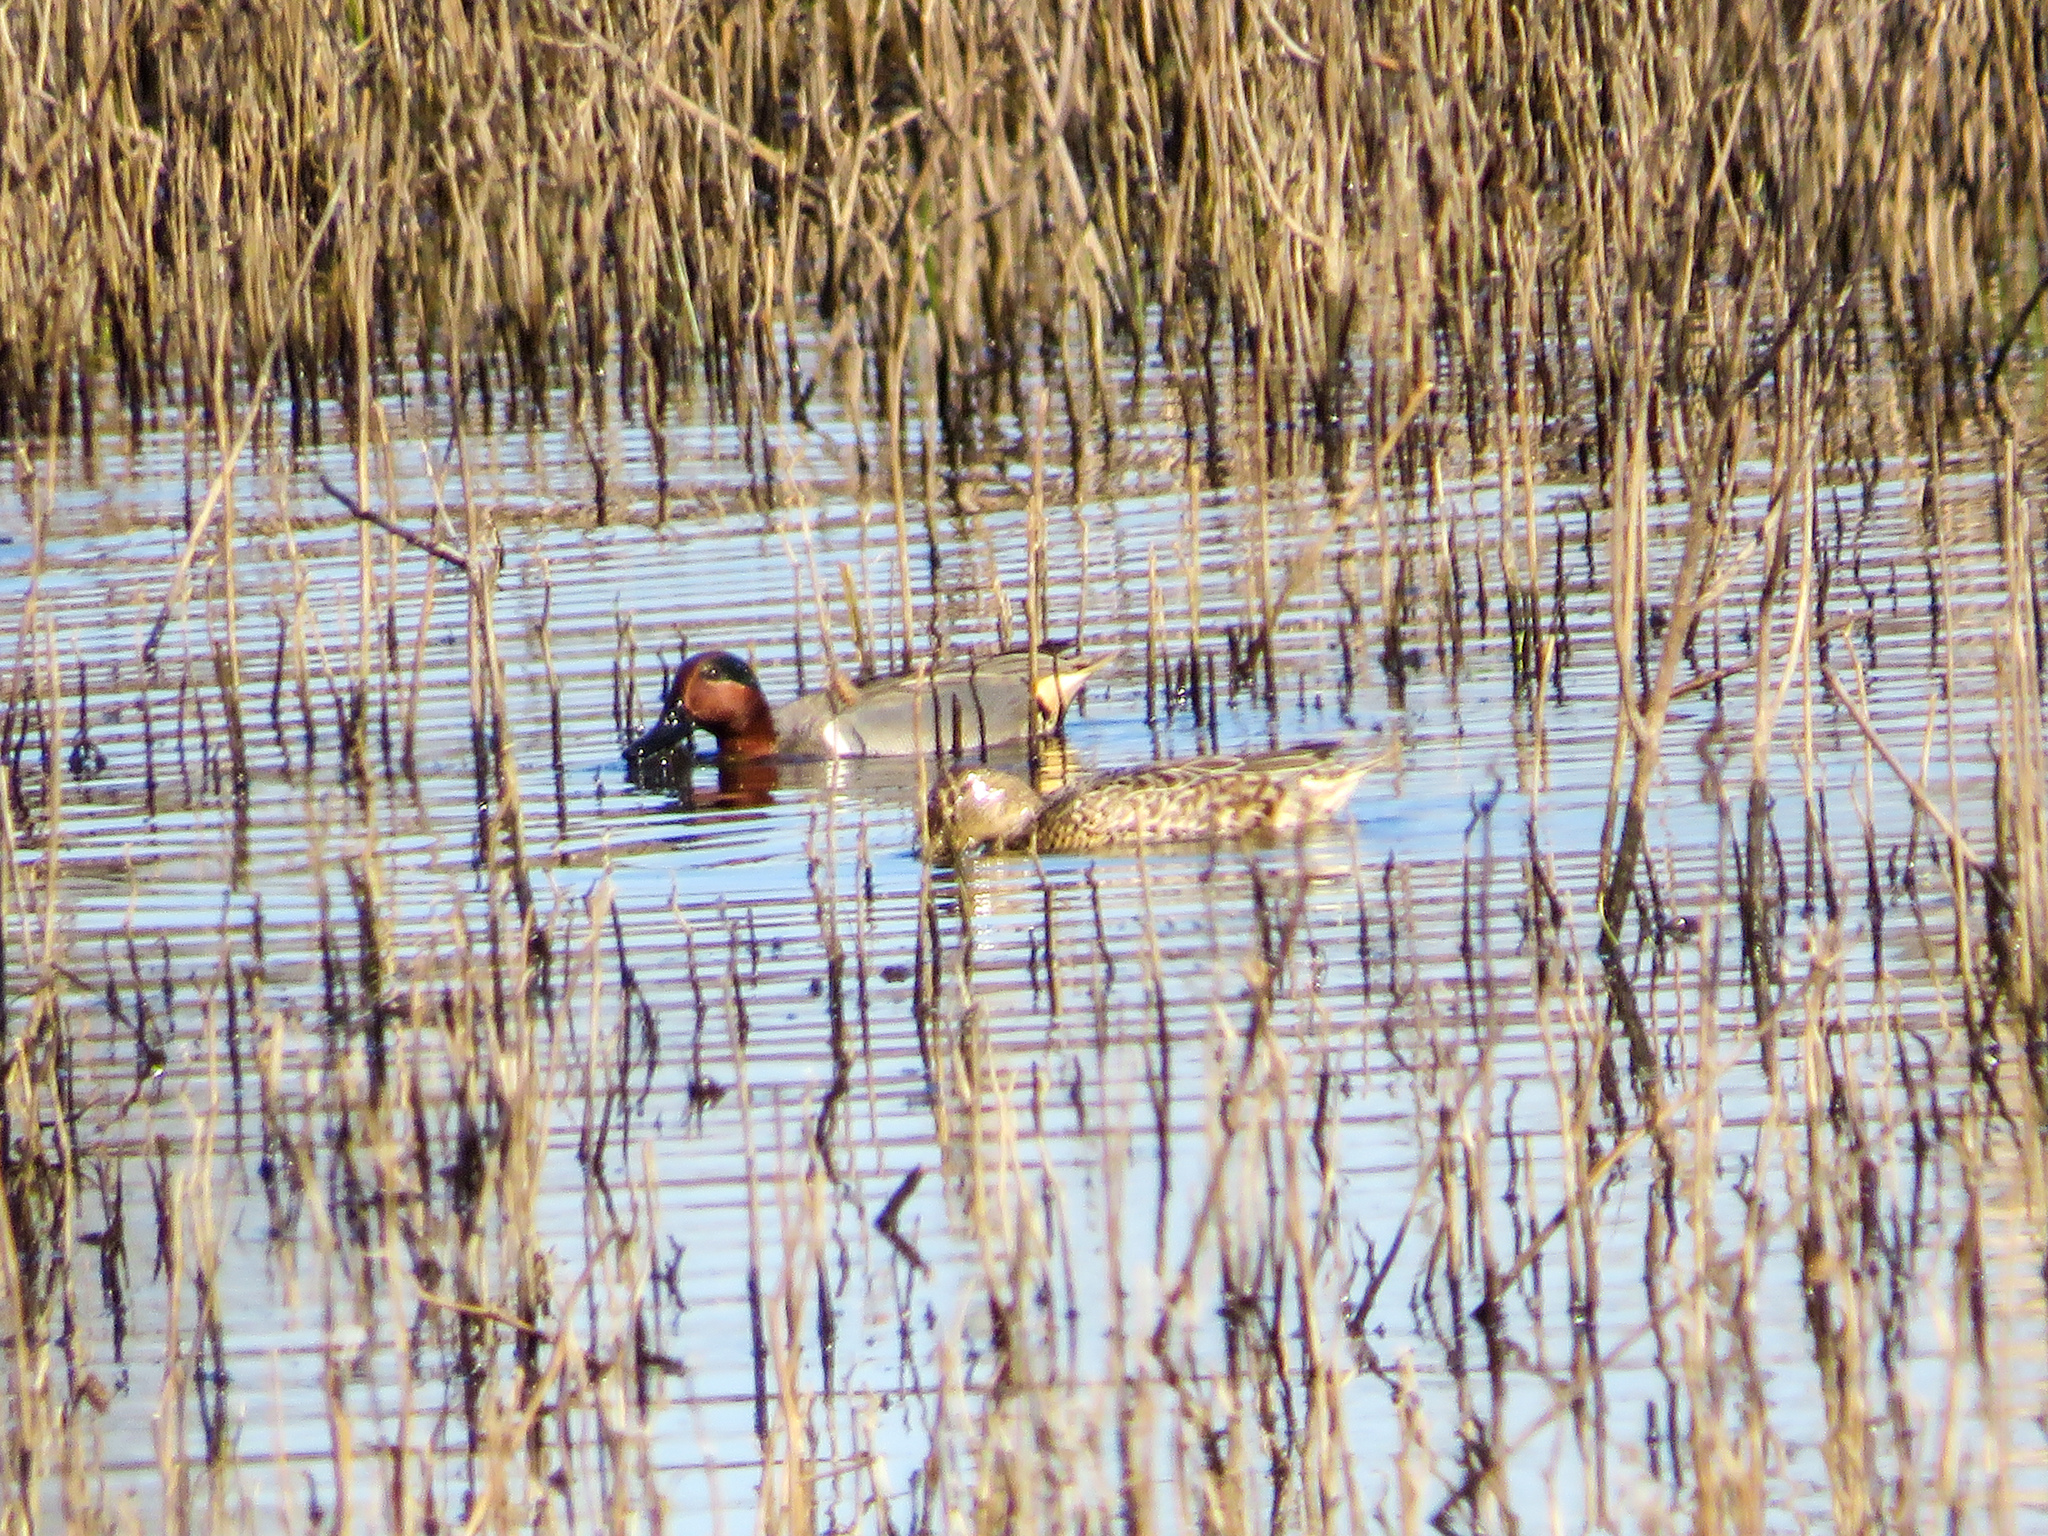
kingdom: Animalia
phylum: Chordata
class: Aves
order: Anseriformes
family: Anatidae
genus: Anas
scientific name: Anas crecca
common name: Eurasian teal
